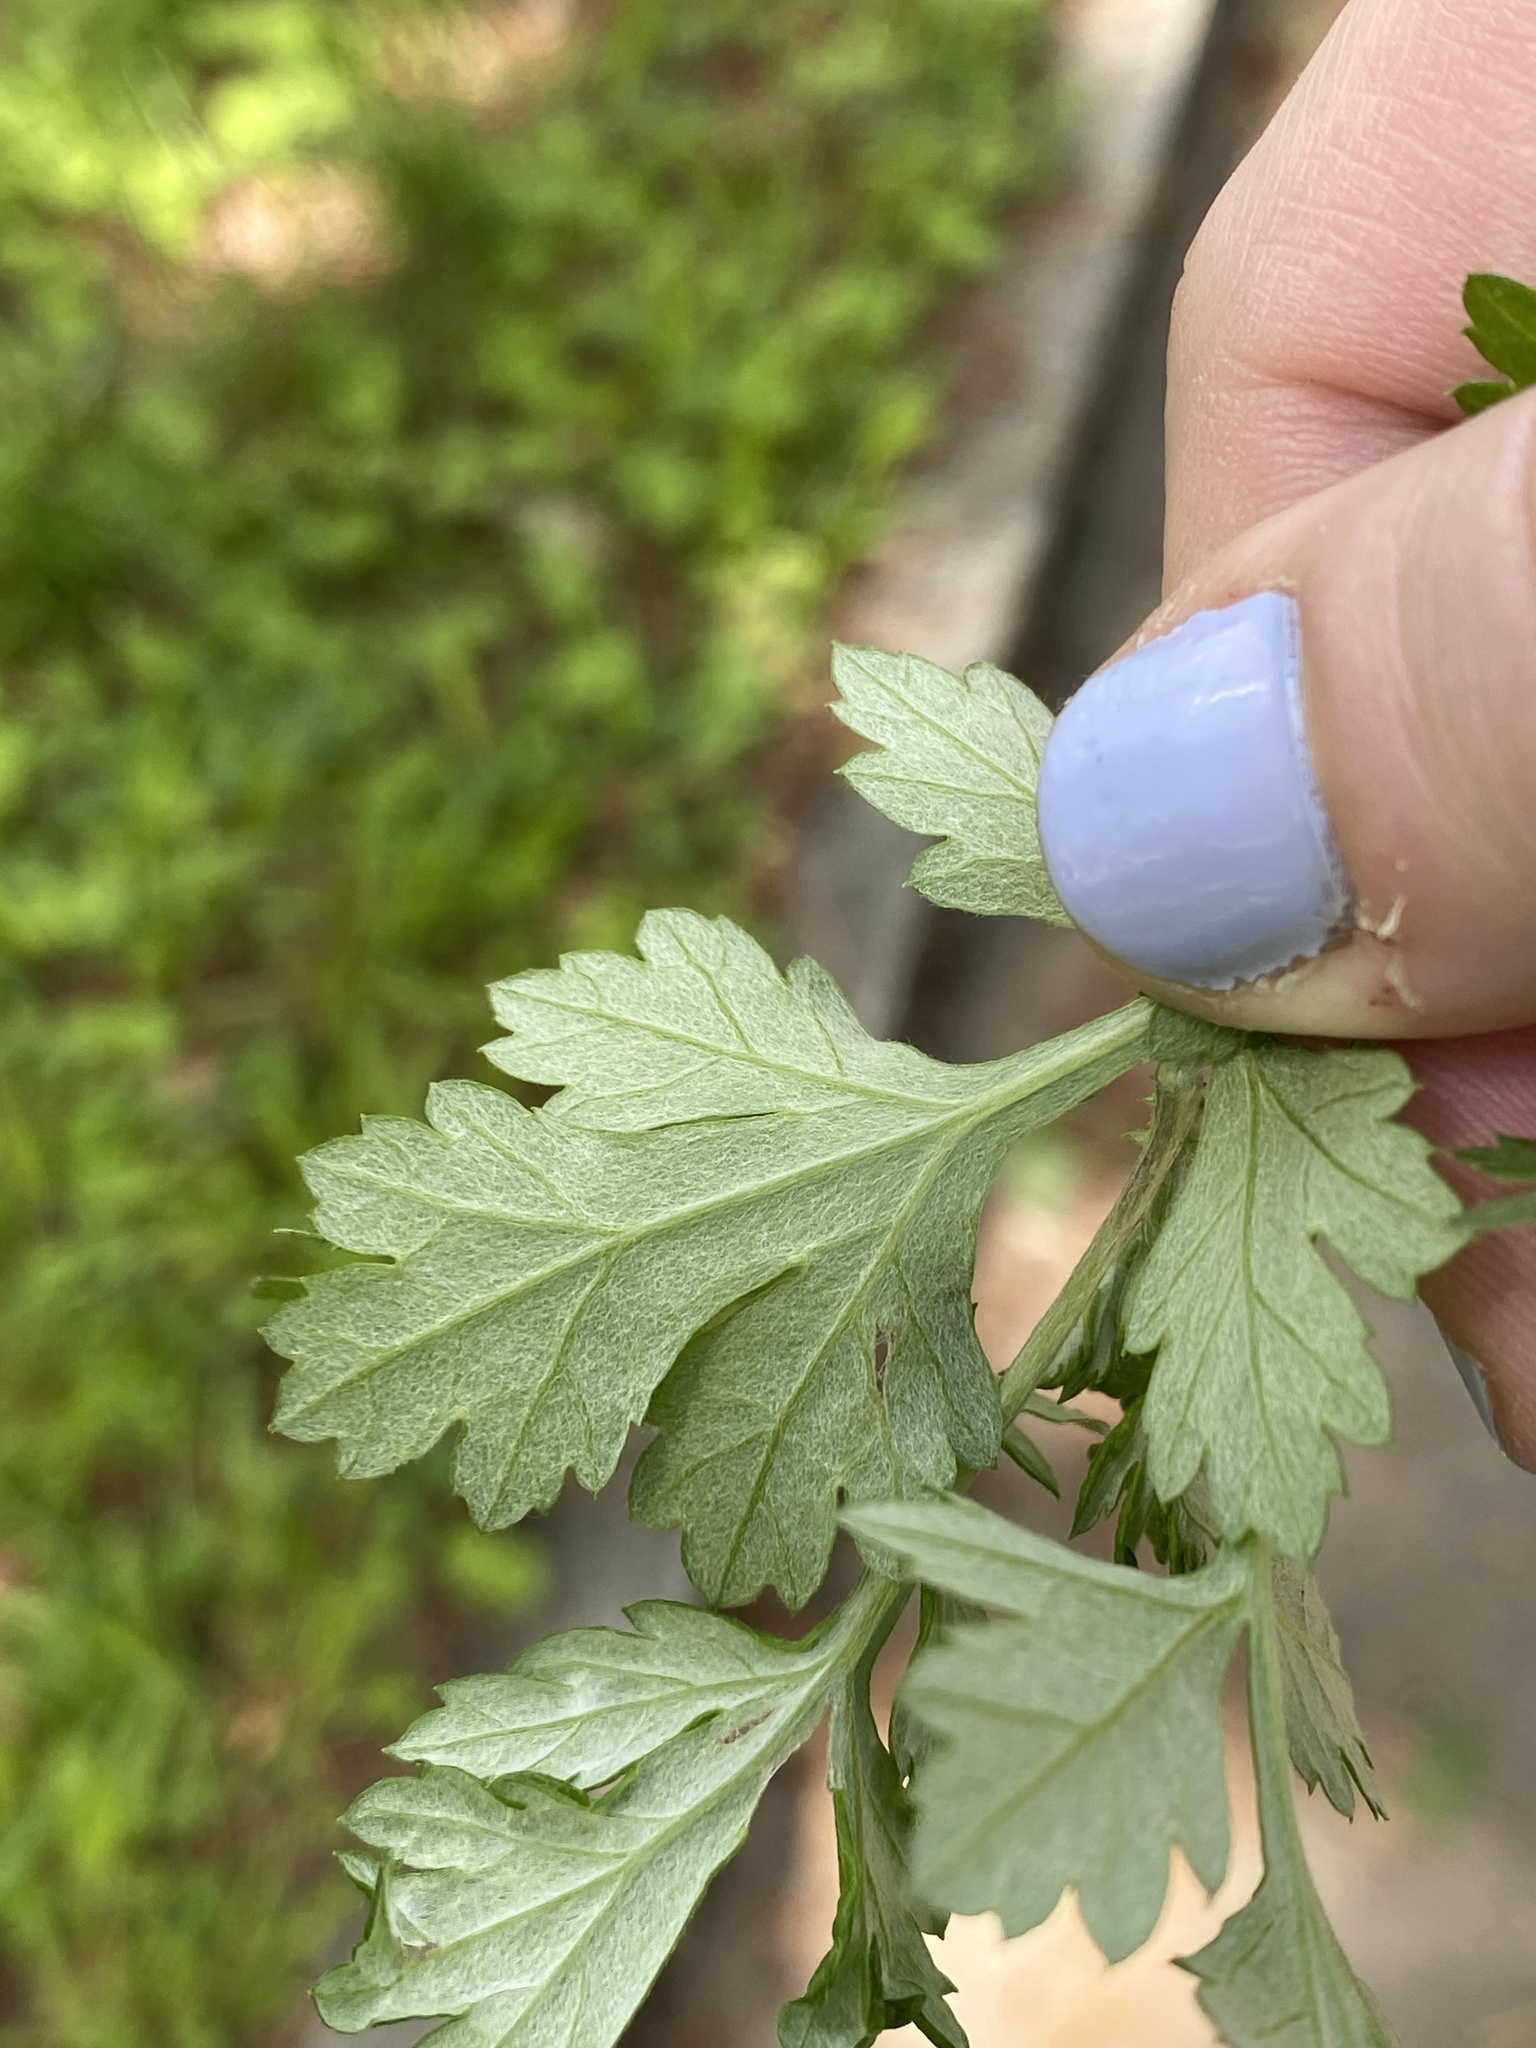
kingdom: Plantae
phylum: Tracheophyta
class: Magnoliopsida
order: Asterales
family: Asteraceae
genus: Artemisia
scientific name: Artemisia vulgaris
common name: Mugwort
